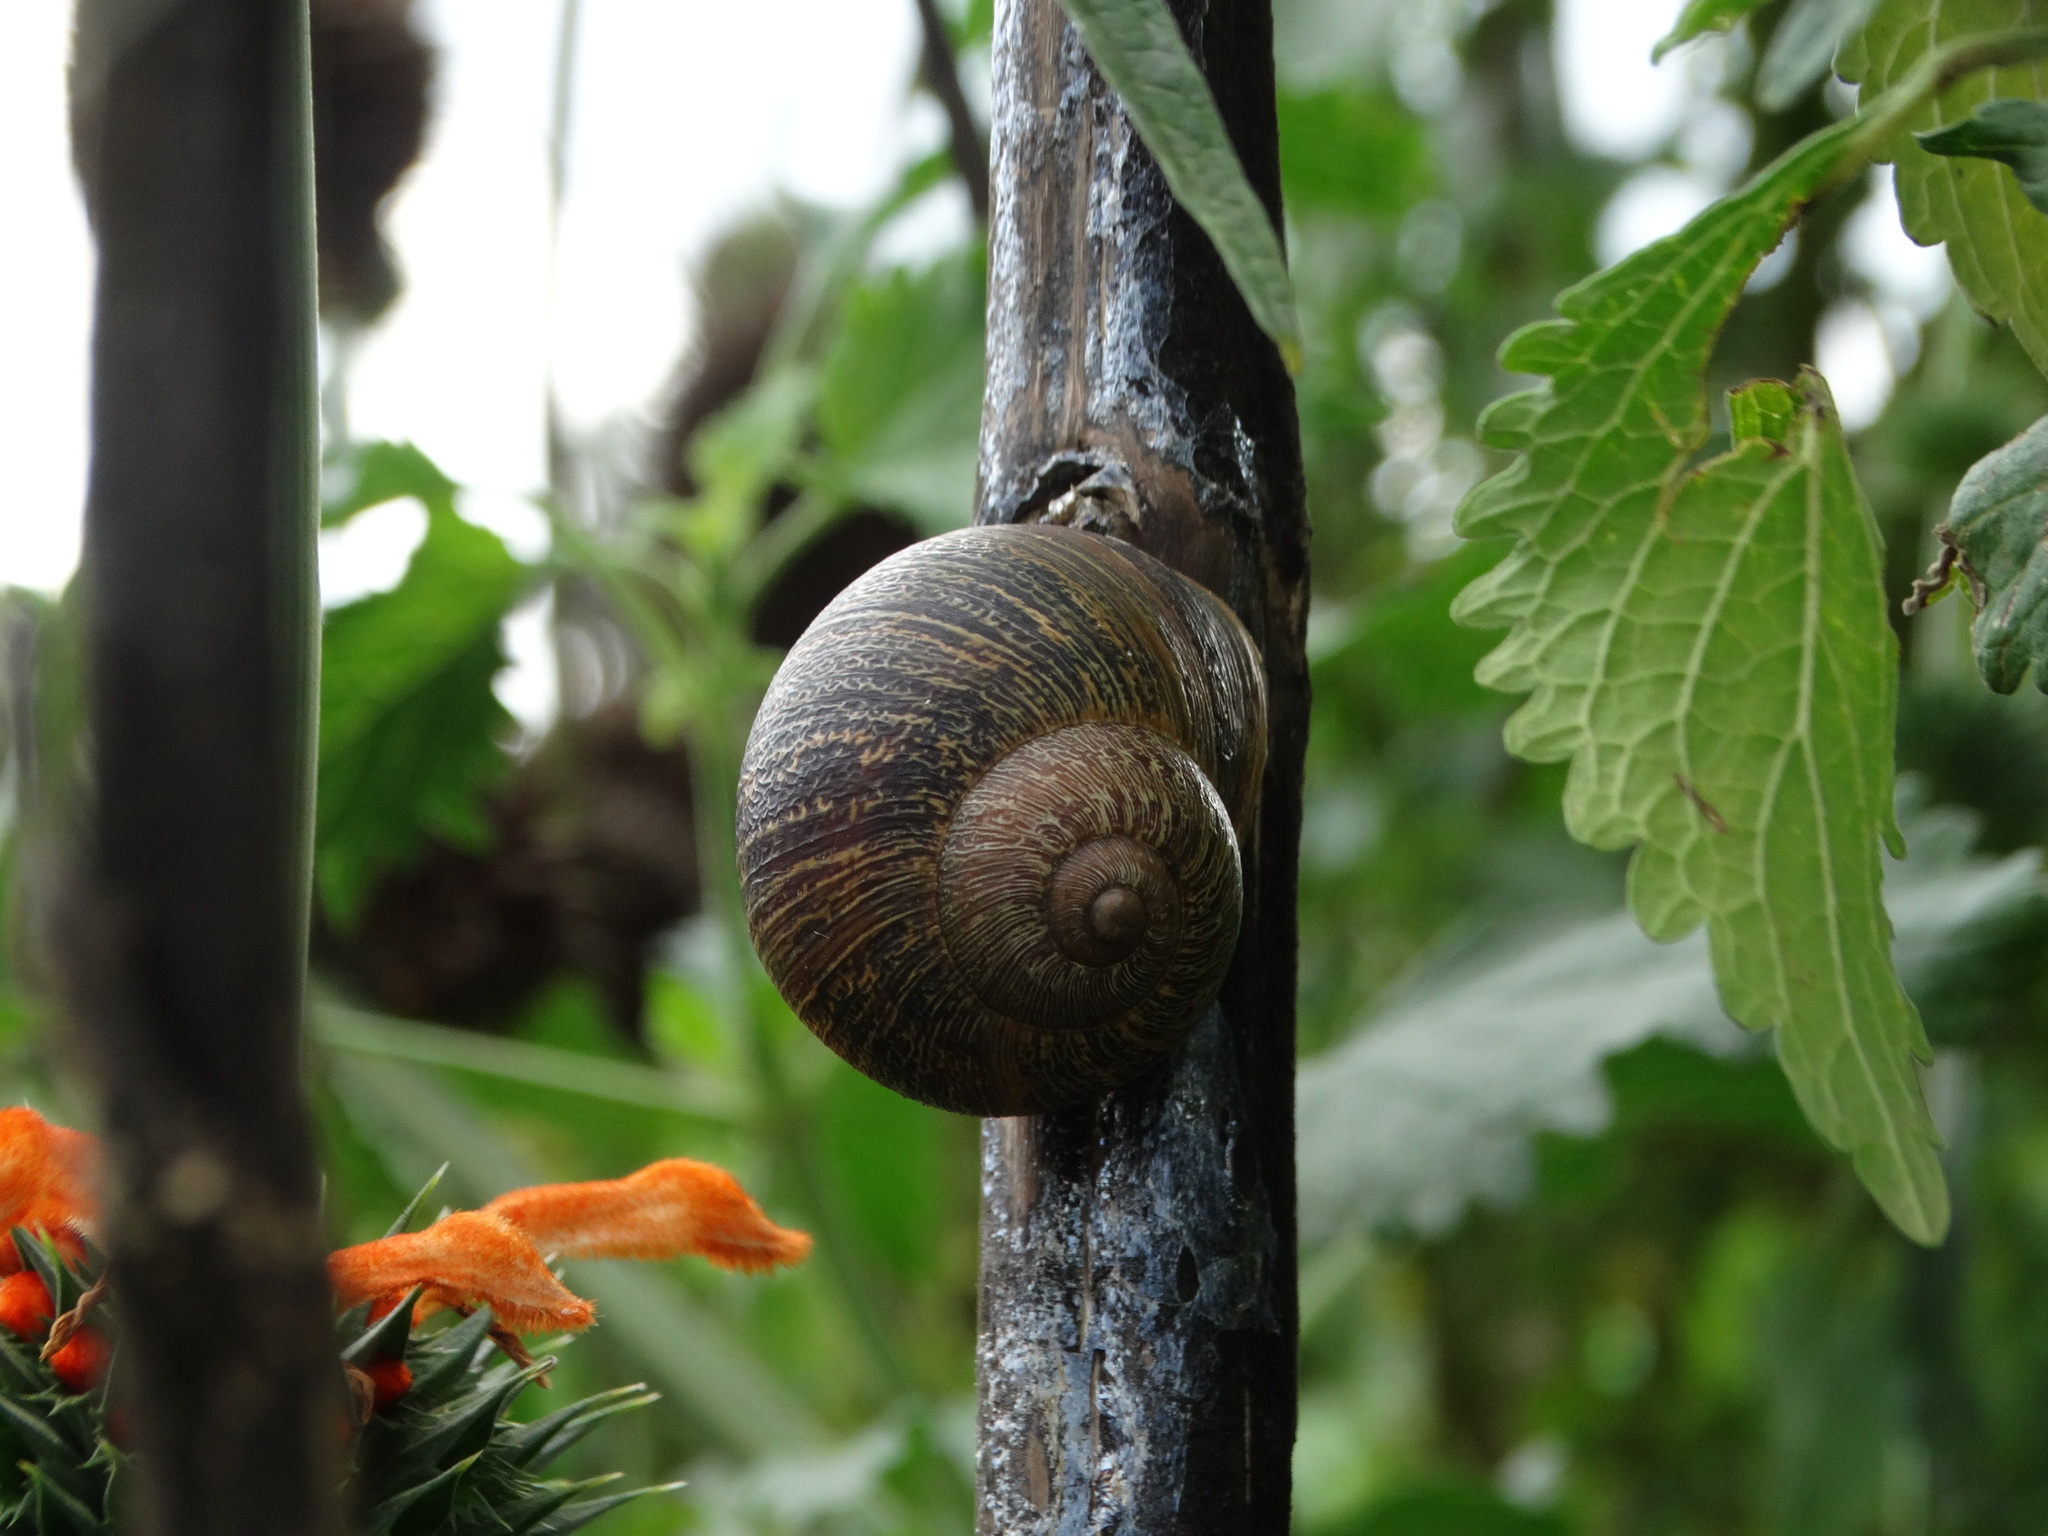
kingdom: Animalia
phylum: Mollusca
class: Gastropoda
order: Stylommatophora
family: Helicidae
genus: Cornu
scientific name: Cornu aspersum
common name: Brown garden snail
